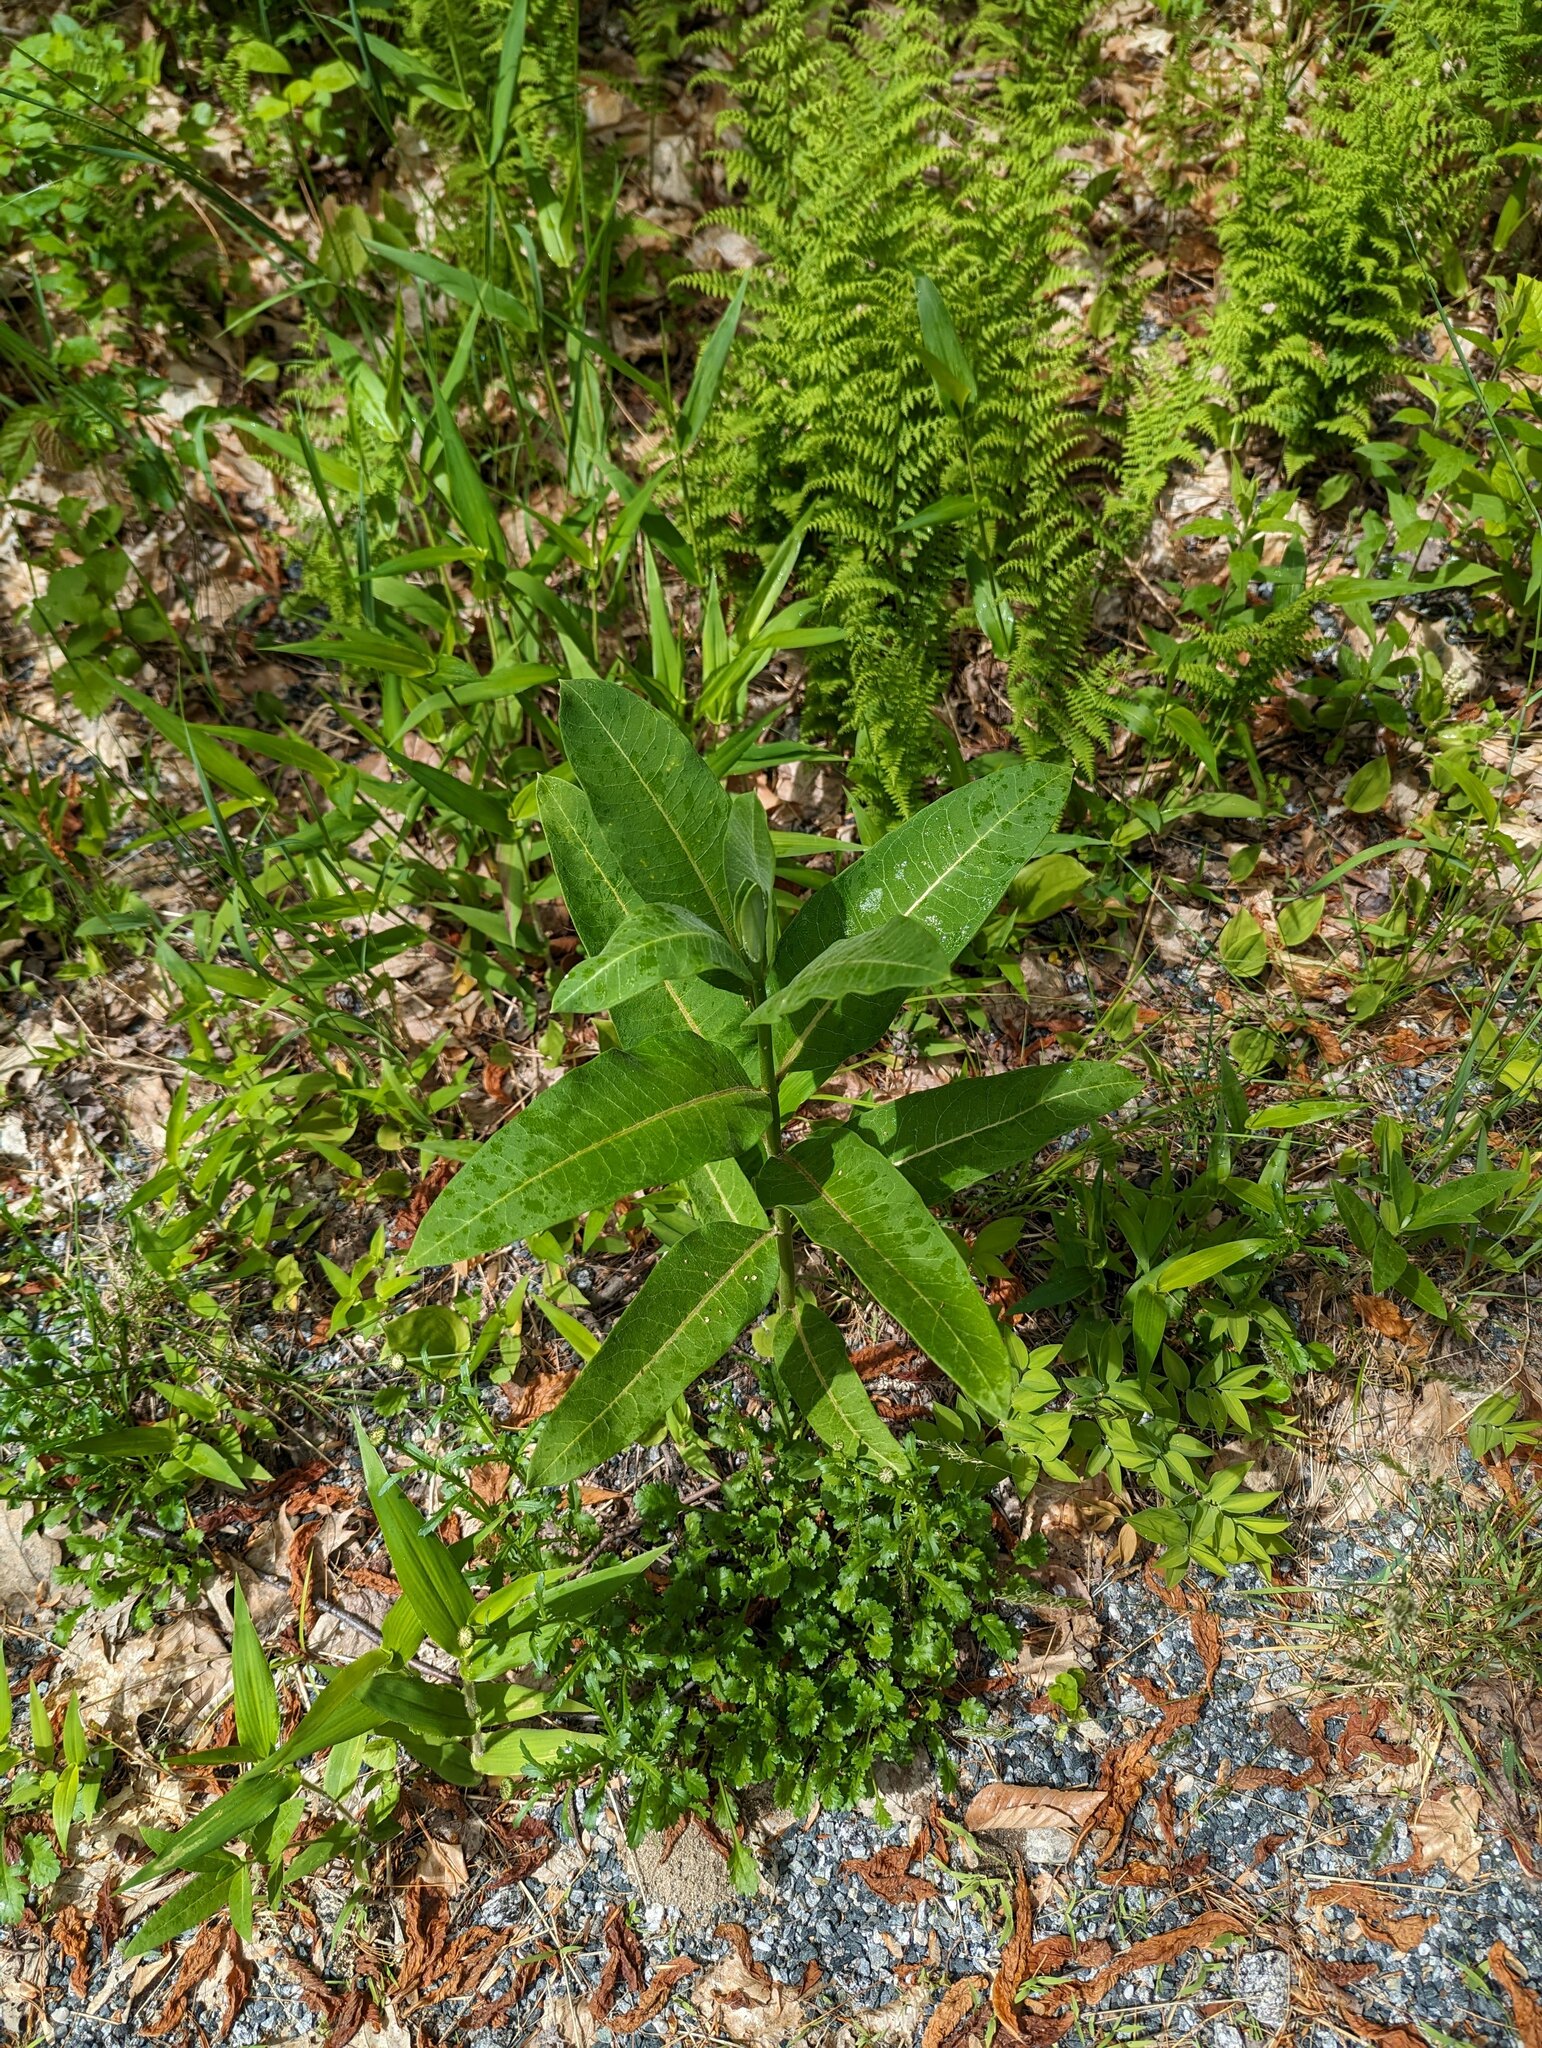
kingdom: Plantae
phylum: Tracheophyta
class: Magnoliopsida
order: Gentianales
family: Apocynaceae
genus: Asclepias
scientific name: Asclepias syriaca
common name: Common milkweed
